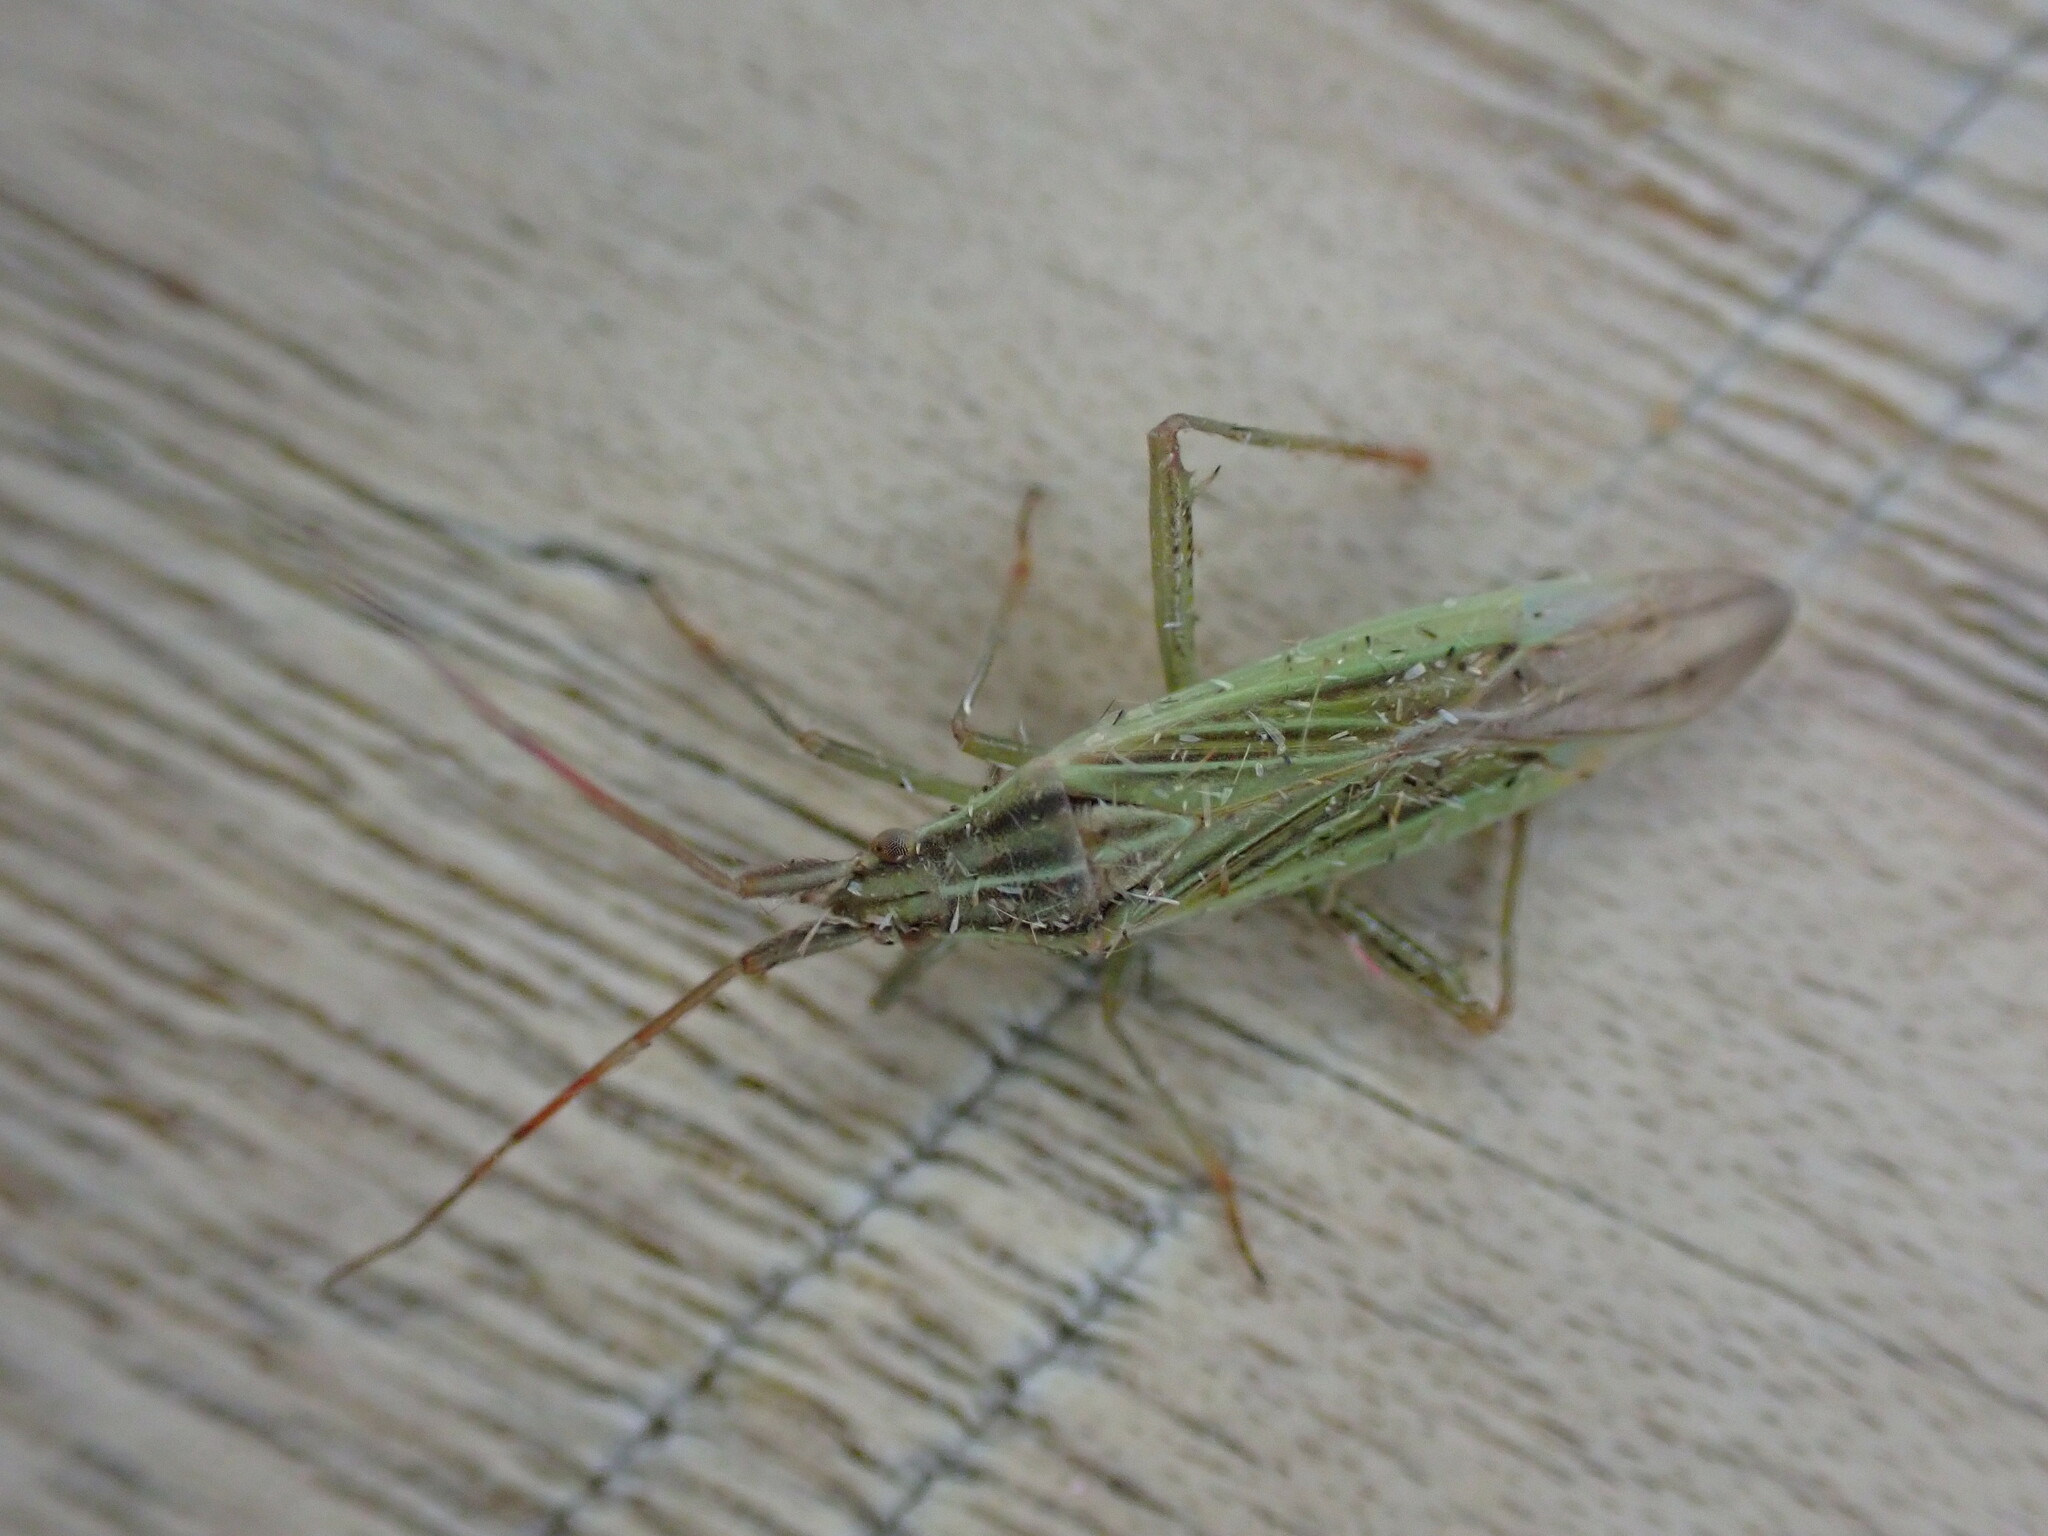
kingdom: Animalia
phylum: Arthropoda
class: Insecta
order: Hemiptera
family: Miridae
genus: Stenodema
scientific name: Stenodema calcarata
